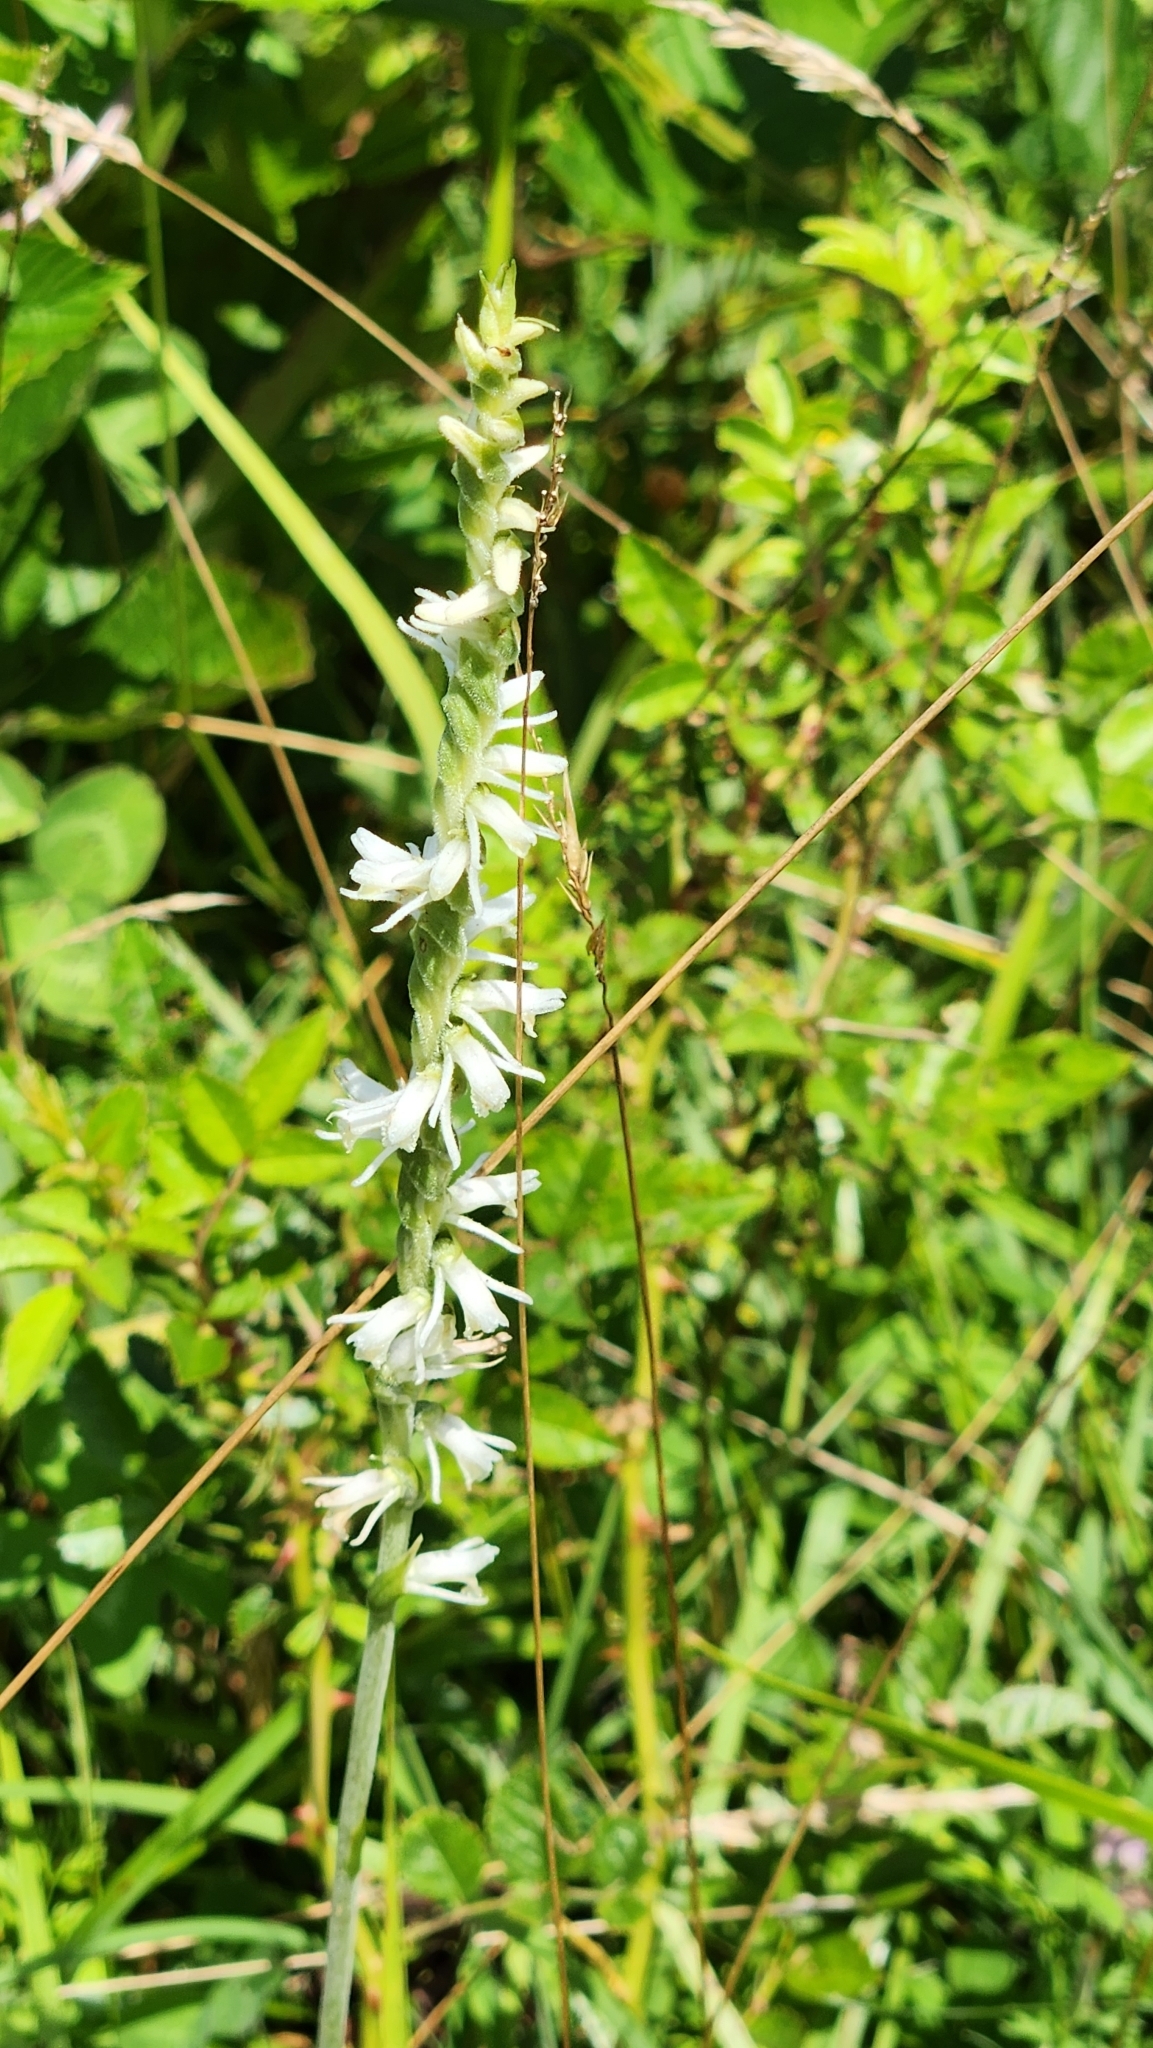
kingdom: Plantae
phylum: Tracheophyta
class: Liliopsida
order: Asparagales
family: Orchidaceae
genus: Spiranthes
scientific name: Spiranthes vernalis
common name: Spring ladies'-tresses
